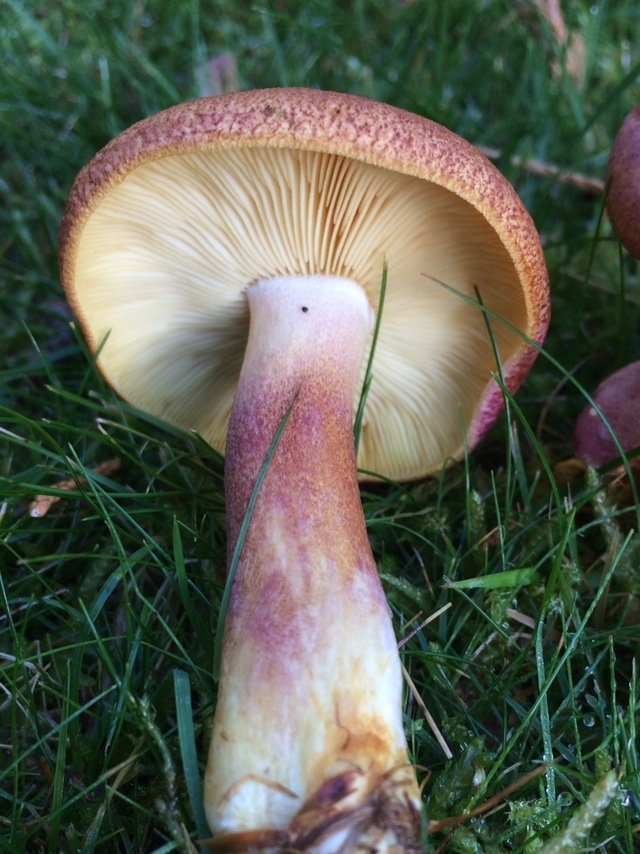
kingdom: Fungi
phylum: Basidiomycota
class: Agaricomycetes
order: Agaricales
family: Tricholomataceae
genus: Tricholomopsis
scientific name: Tricholomopsis rutilans
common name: Plums and custard
